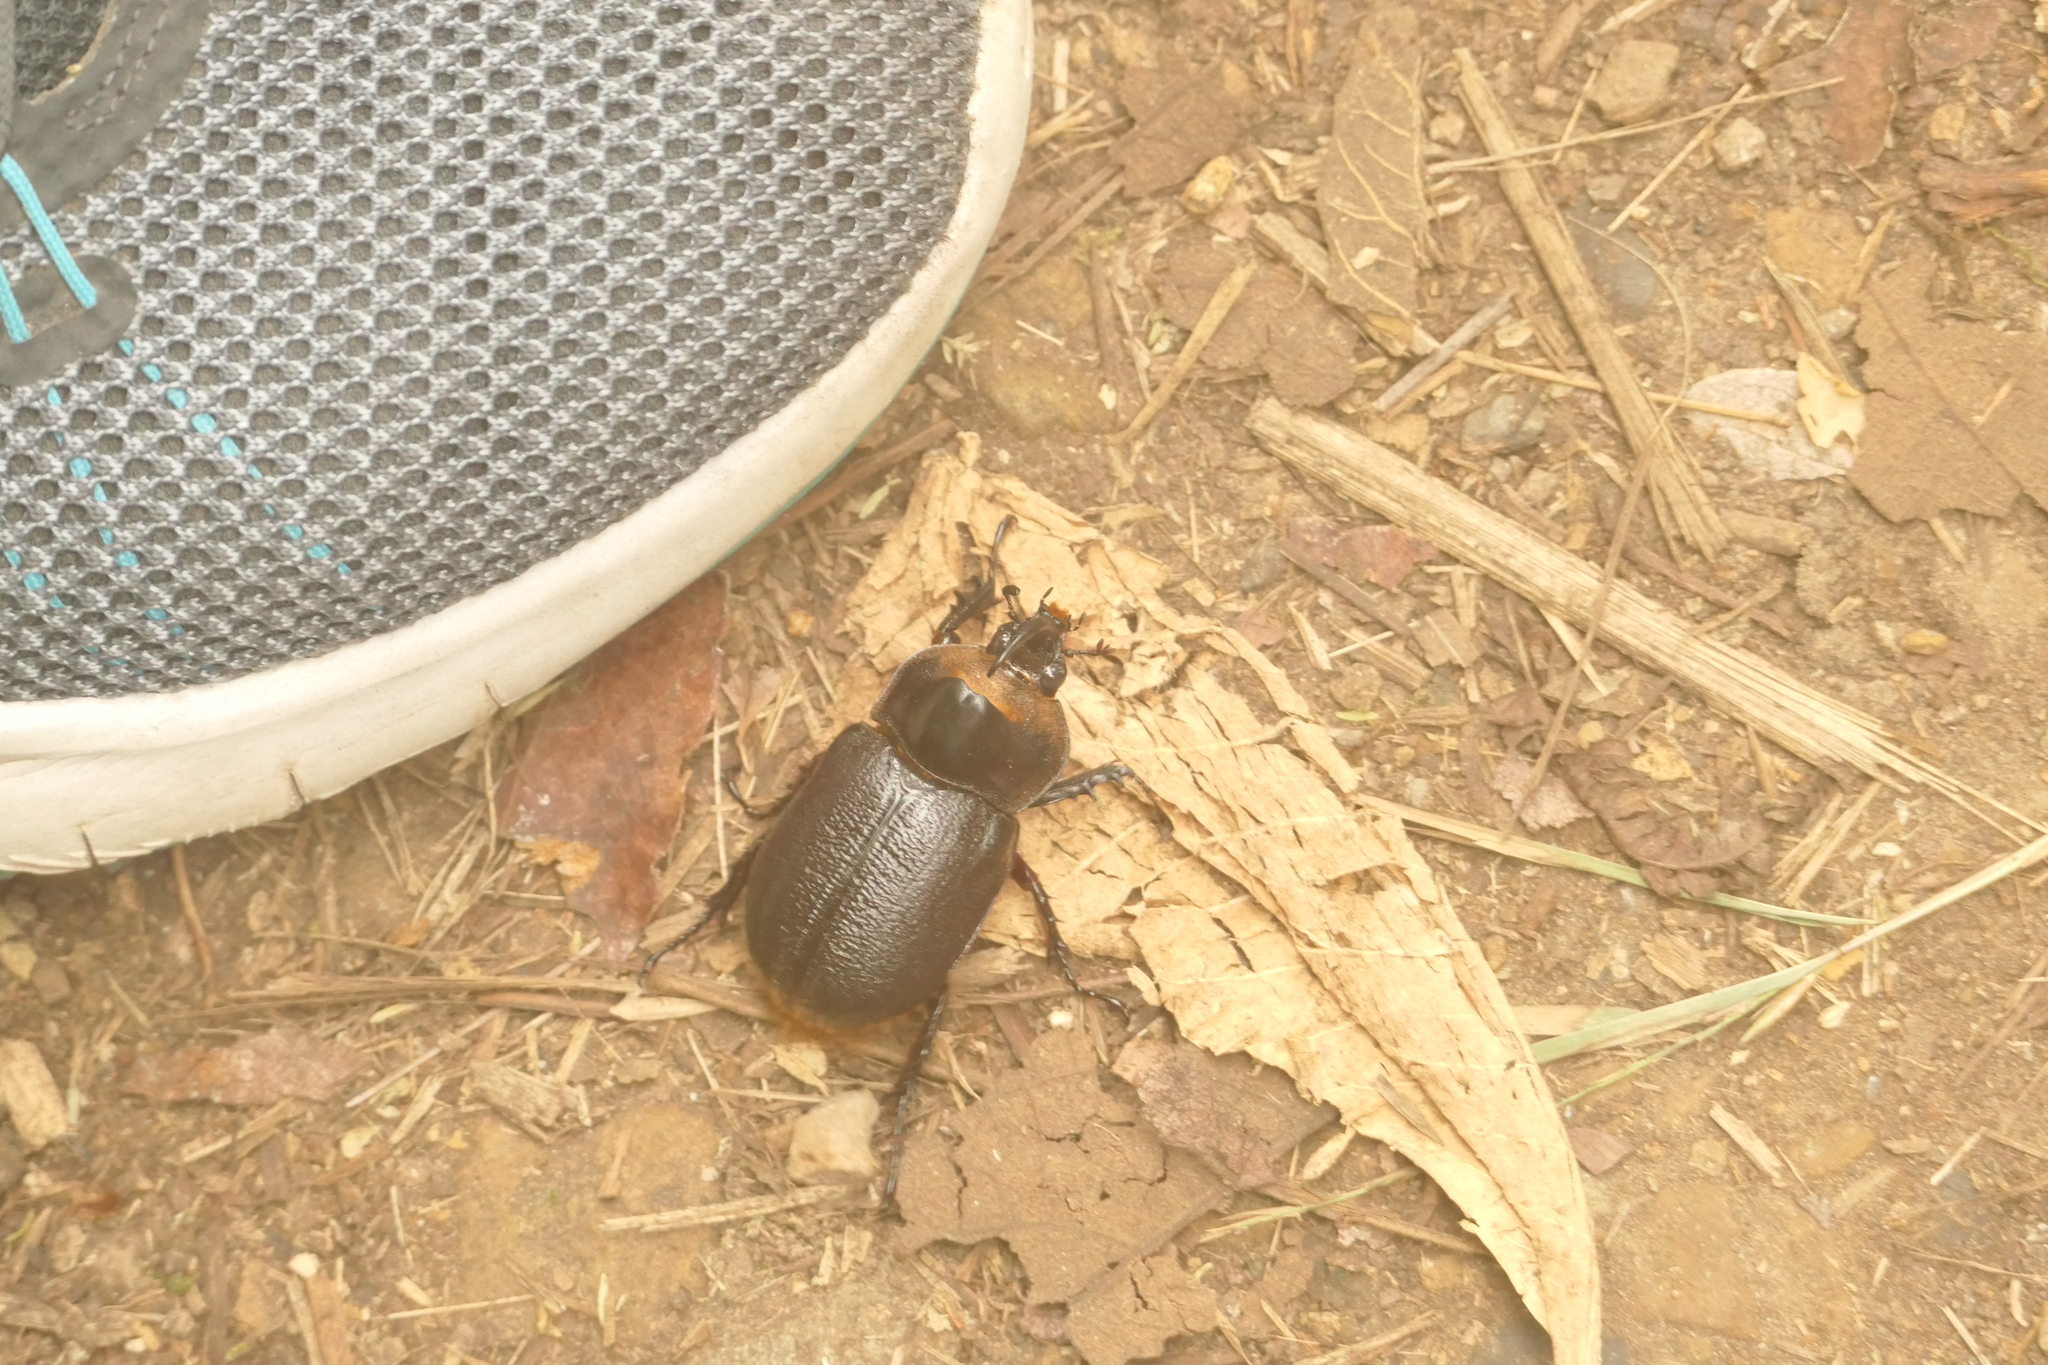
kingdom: Animalia
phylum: Arthropoda
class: Insecta
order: Coleoptera
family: Scarabaeidae
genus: Heterogomphus
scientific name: Heterogomphus schoenherri
